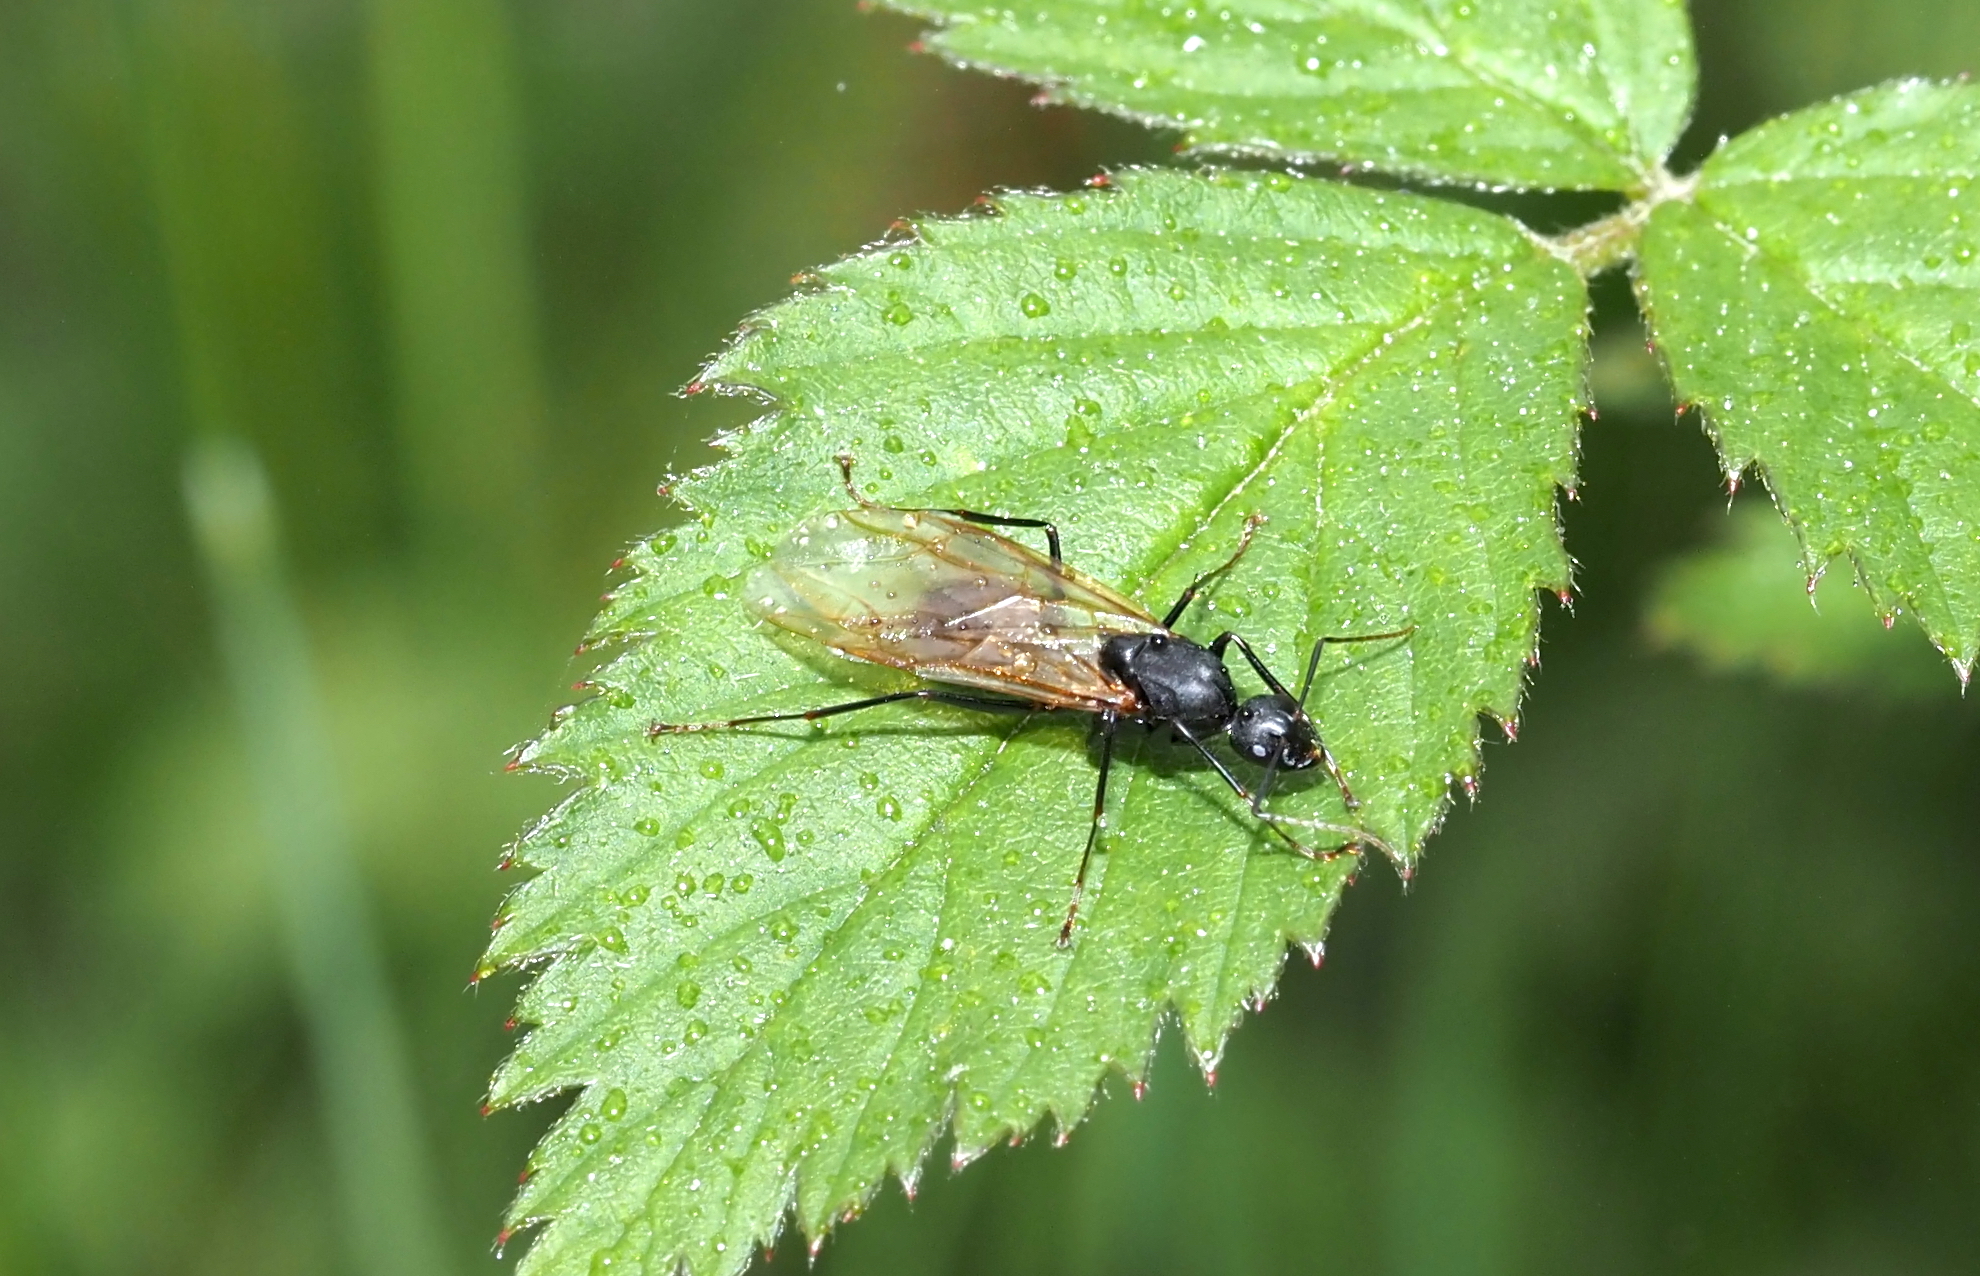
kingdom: Animalia
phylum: Arthropoda
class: Insecta
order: Hymenoptera
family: Formicidae
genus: Camponotus
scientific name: Camponotus pennsylvanicus
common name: Black carpenter ant
